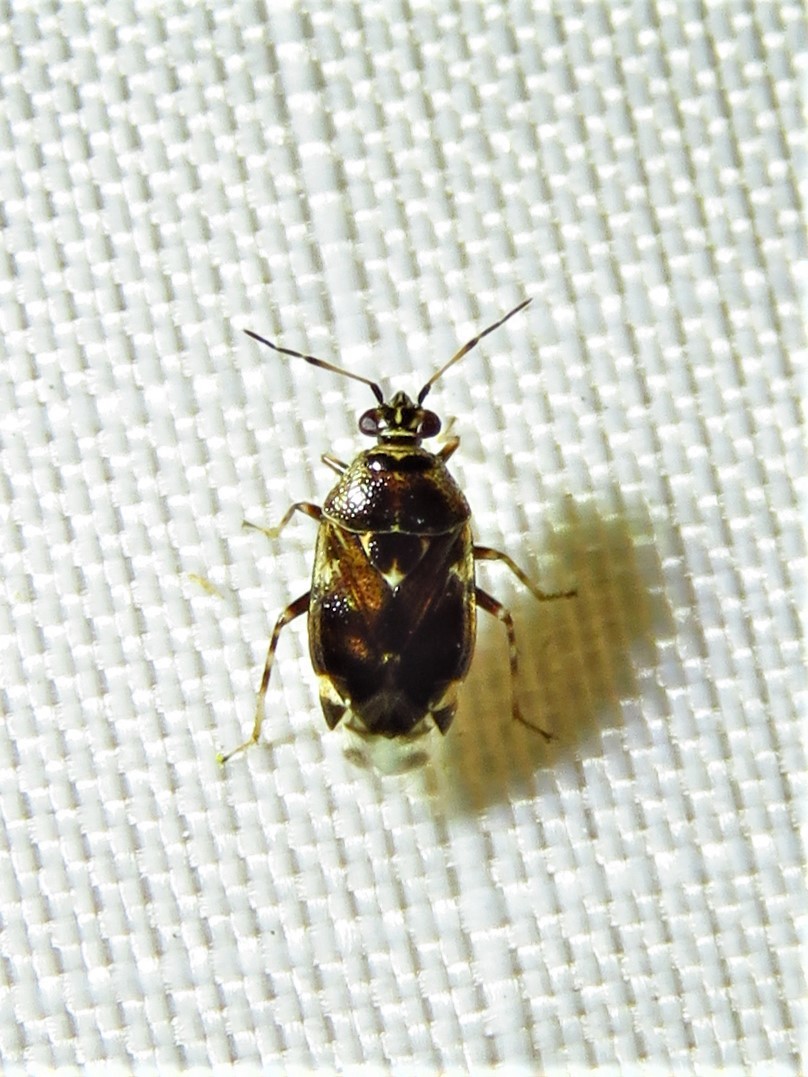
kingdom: Animalia
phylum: Arthropoda
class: Insecta
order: Hemiptera
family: Miridae
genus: Deraeocoris
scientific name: Deraeocoris nebulosus
